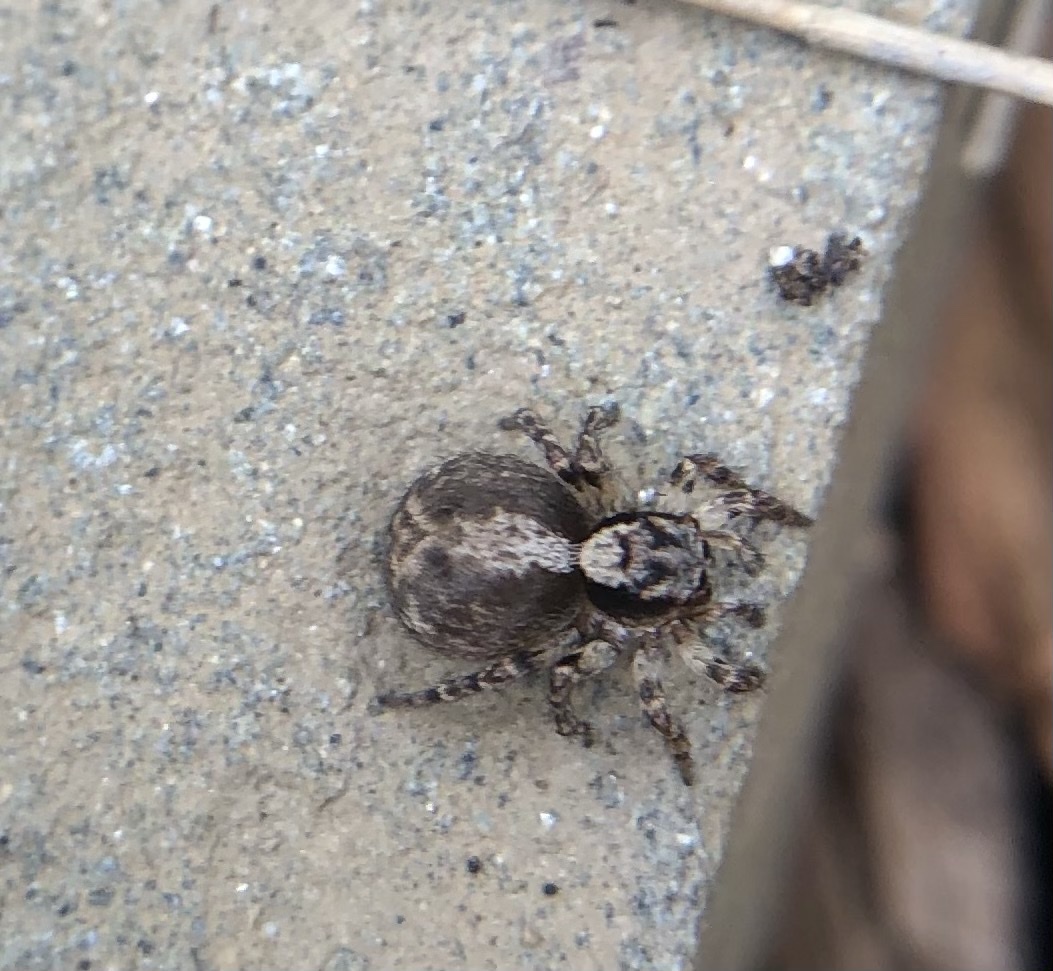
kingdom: Animalia
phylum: Arthropoda
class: Arachnida
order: Araneae
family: Salticidae
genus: Naphrys
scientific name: Naphrys pulex
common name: Flea jumping spider
